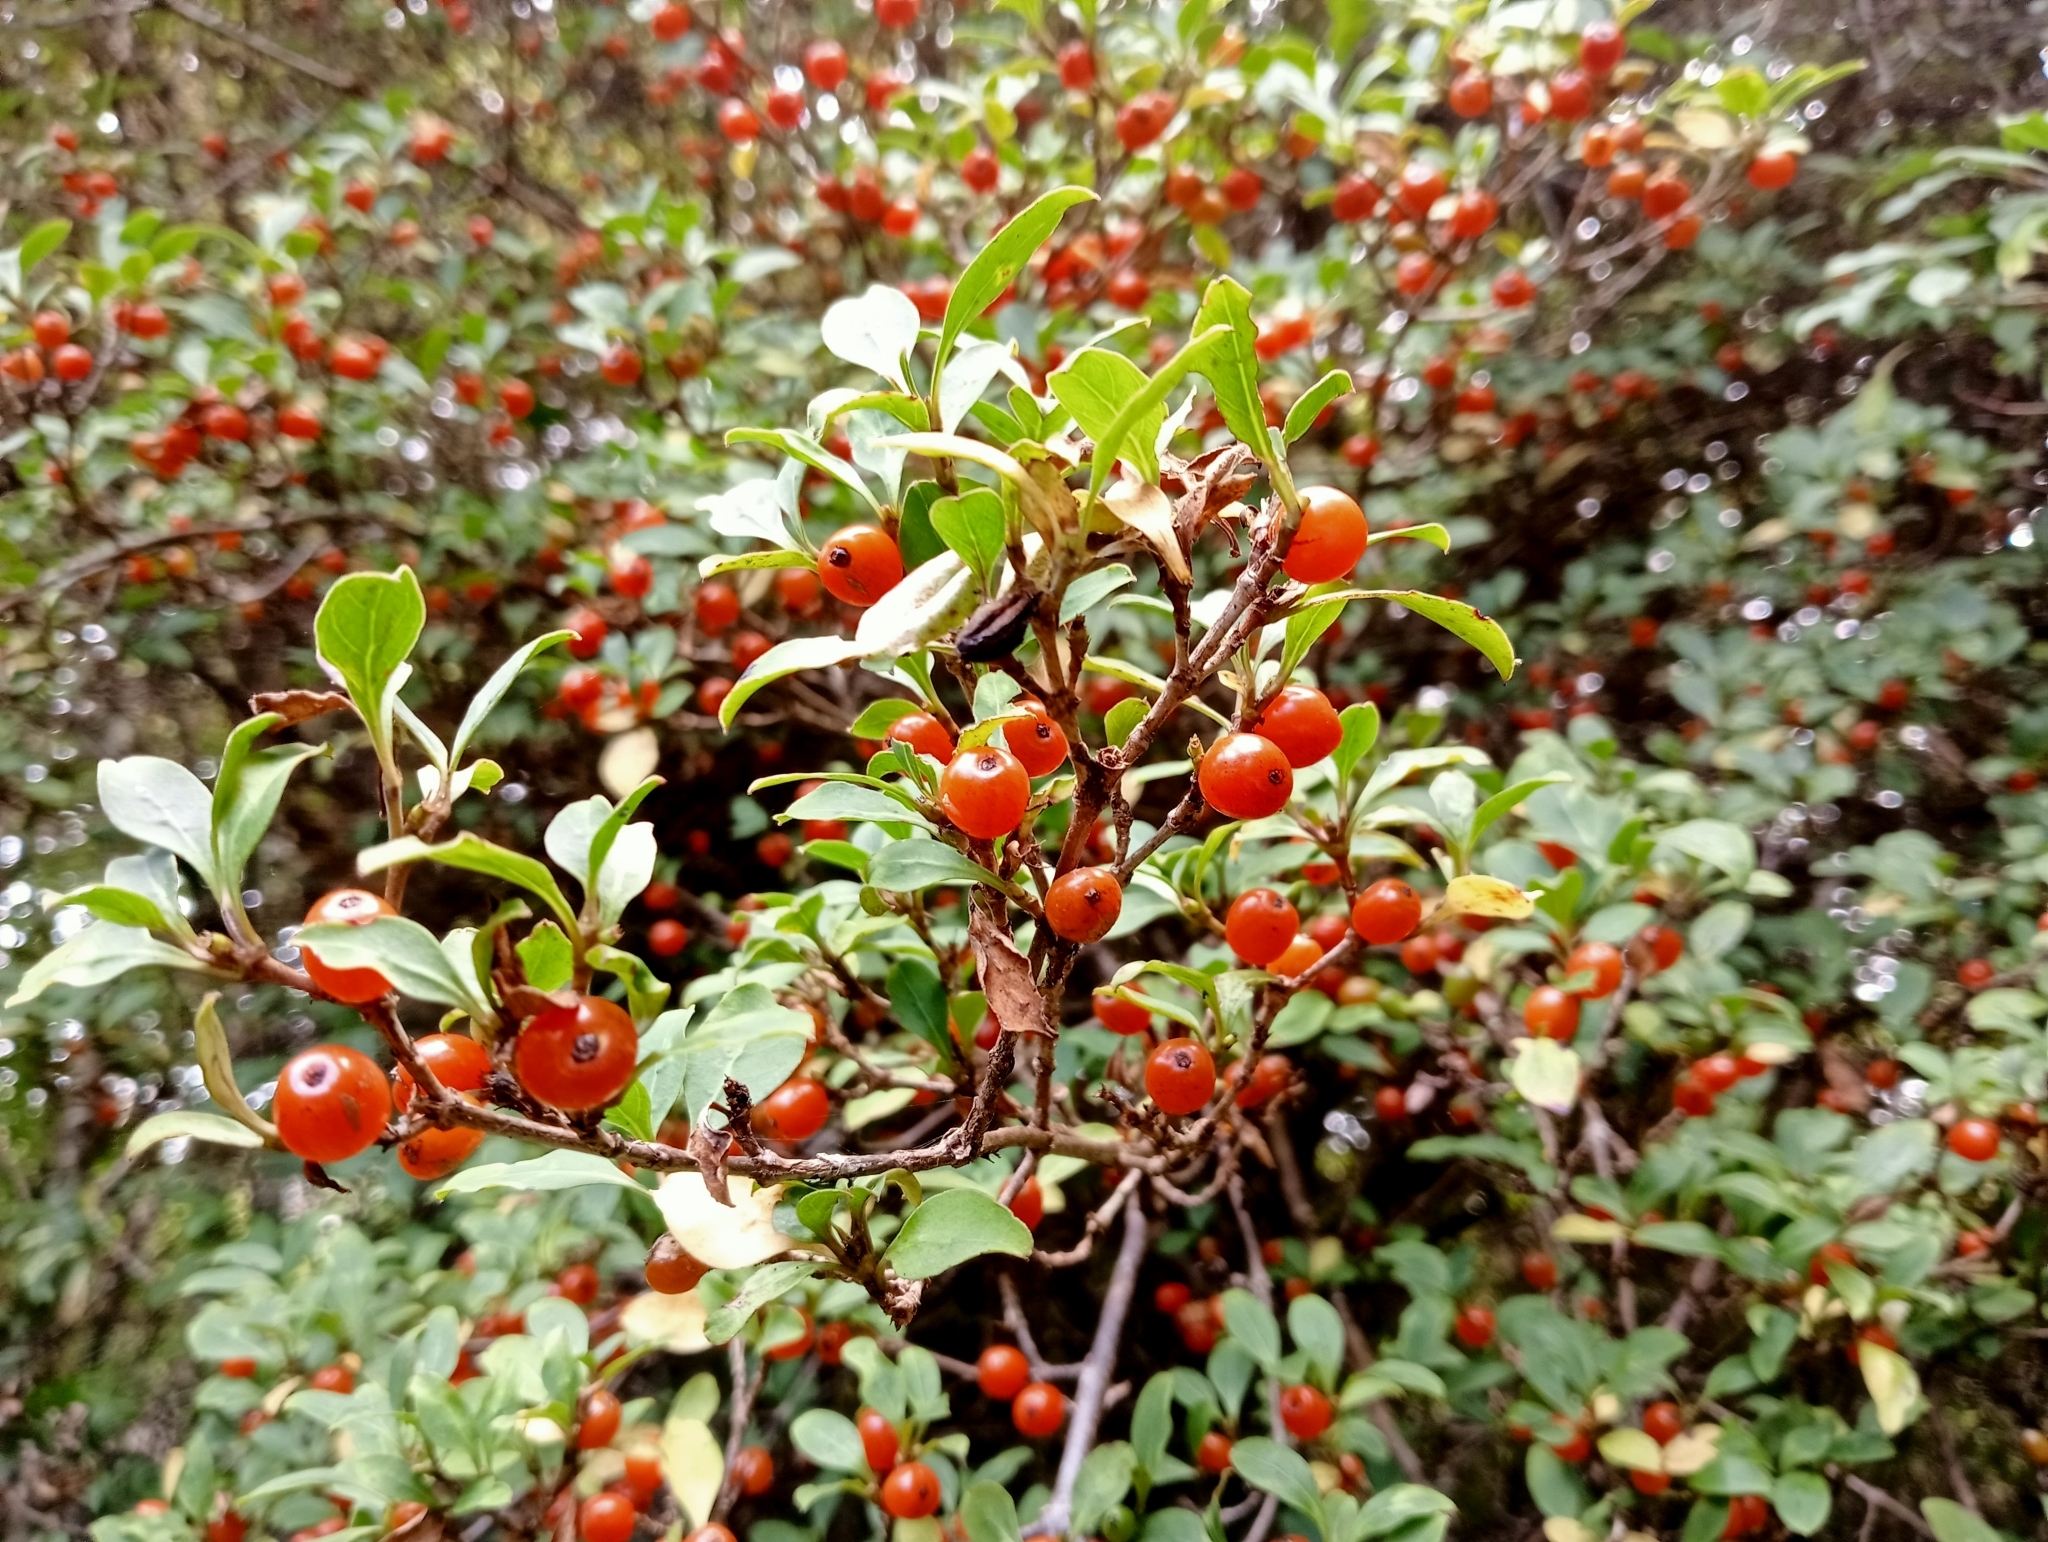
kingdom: Plantae
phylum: Tracheophyta
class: Magnoliopsida
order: Gentianales
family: Rubiaceae
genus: Coprosma
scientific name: Coprosma foetidissima
